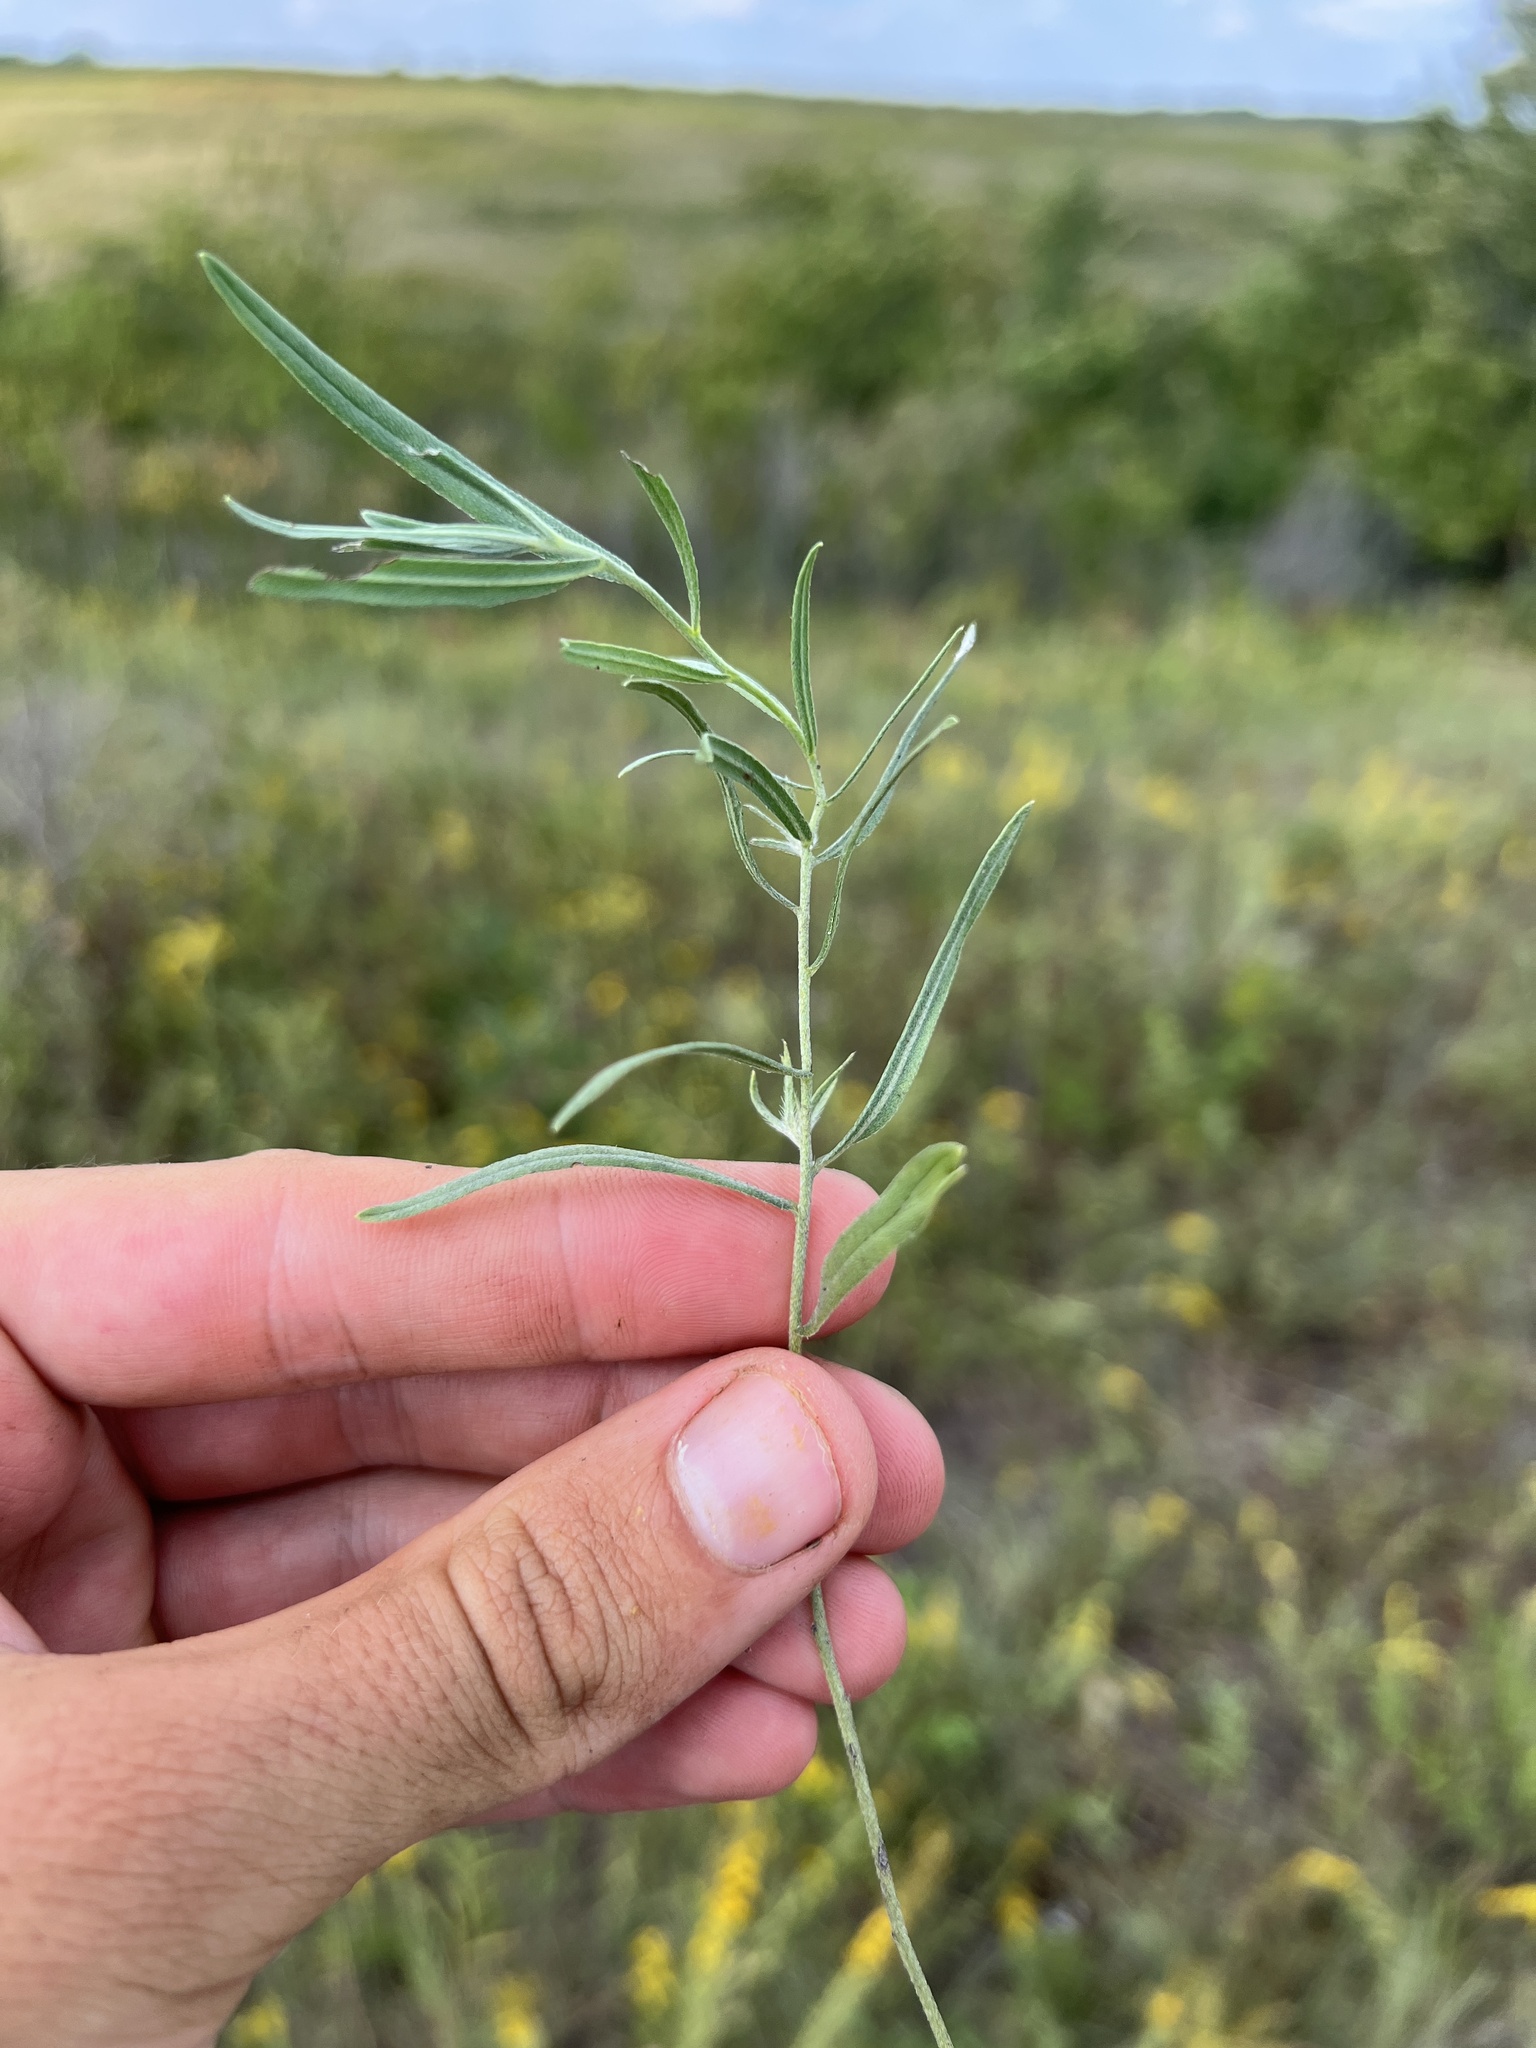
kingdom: Plantae
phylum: Tracheophyta
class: Magnoliopsida
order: Boraginales
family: Boraginaceae
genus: Lithospermum
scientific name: Lithospermum incisum
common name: Fringed gromwell
